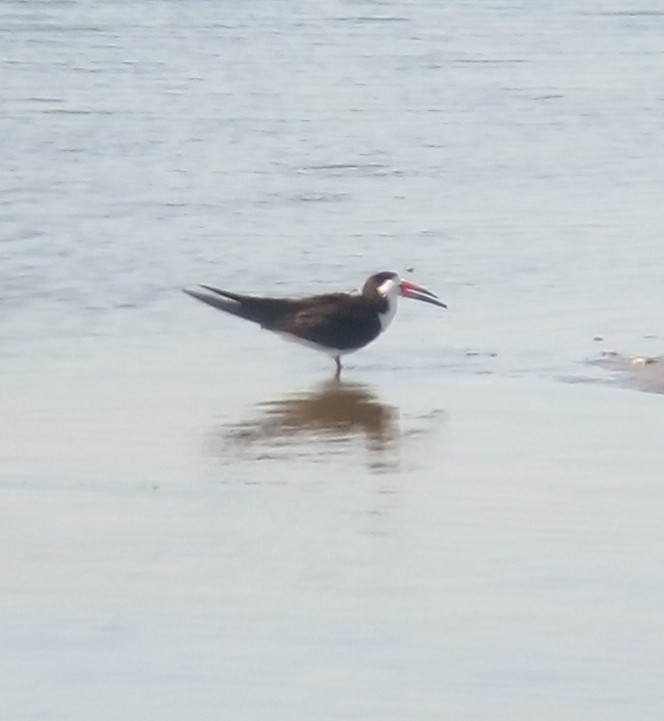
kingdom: Animalia
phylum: Chordata
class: Aves
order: Charadriiformes
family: Laridae
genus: Rynchops
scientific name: Rynchops niger
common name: Black skimmer
